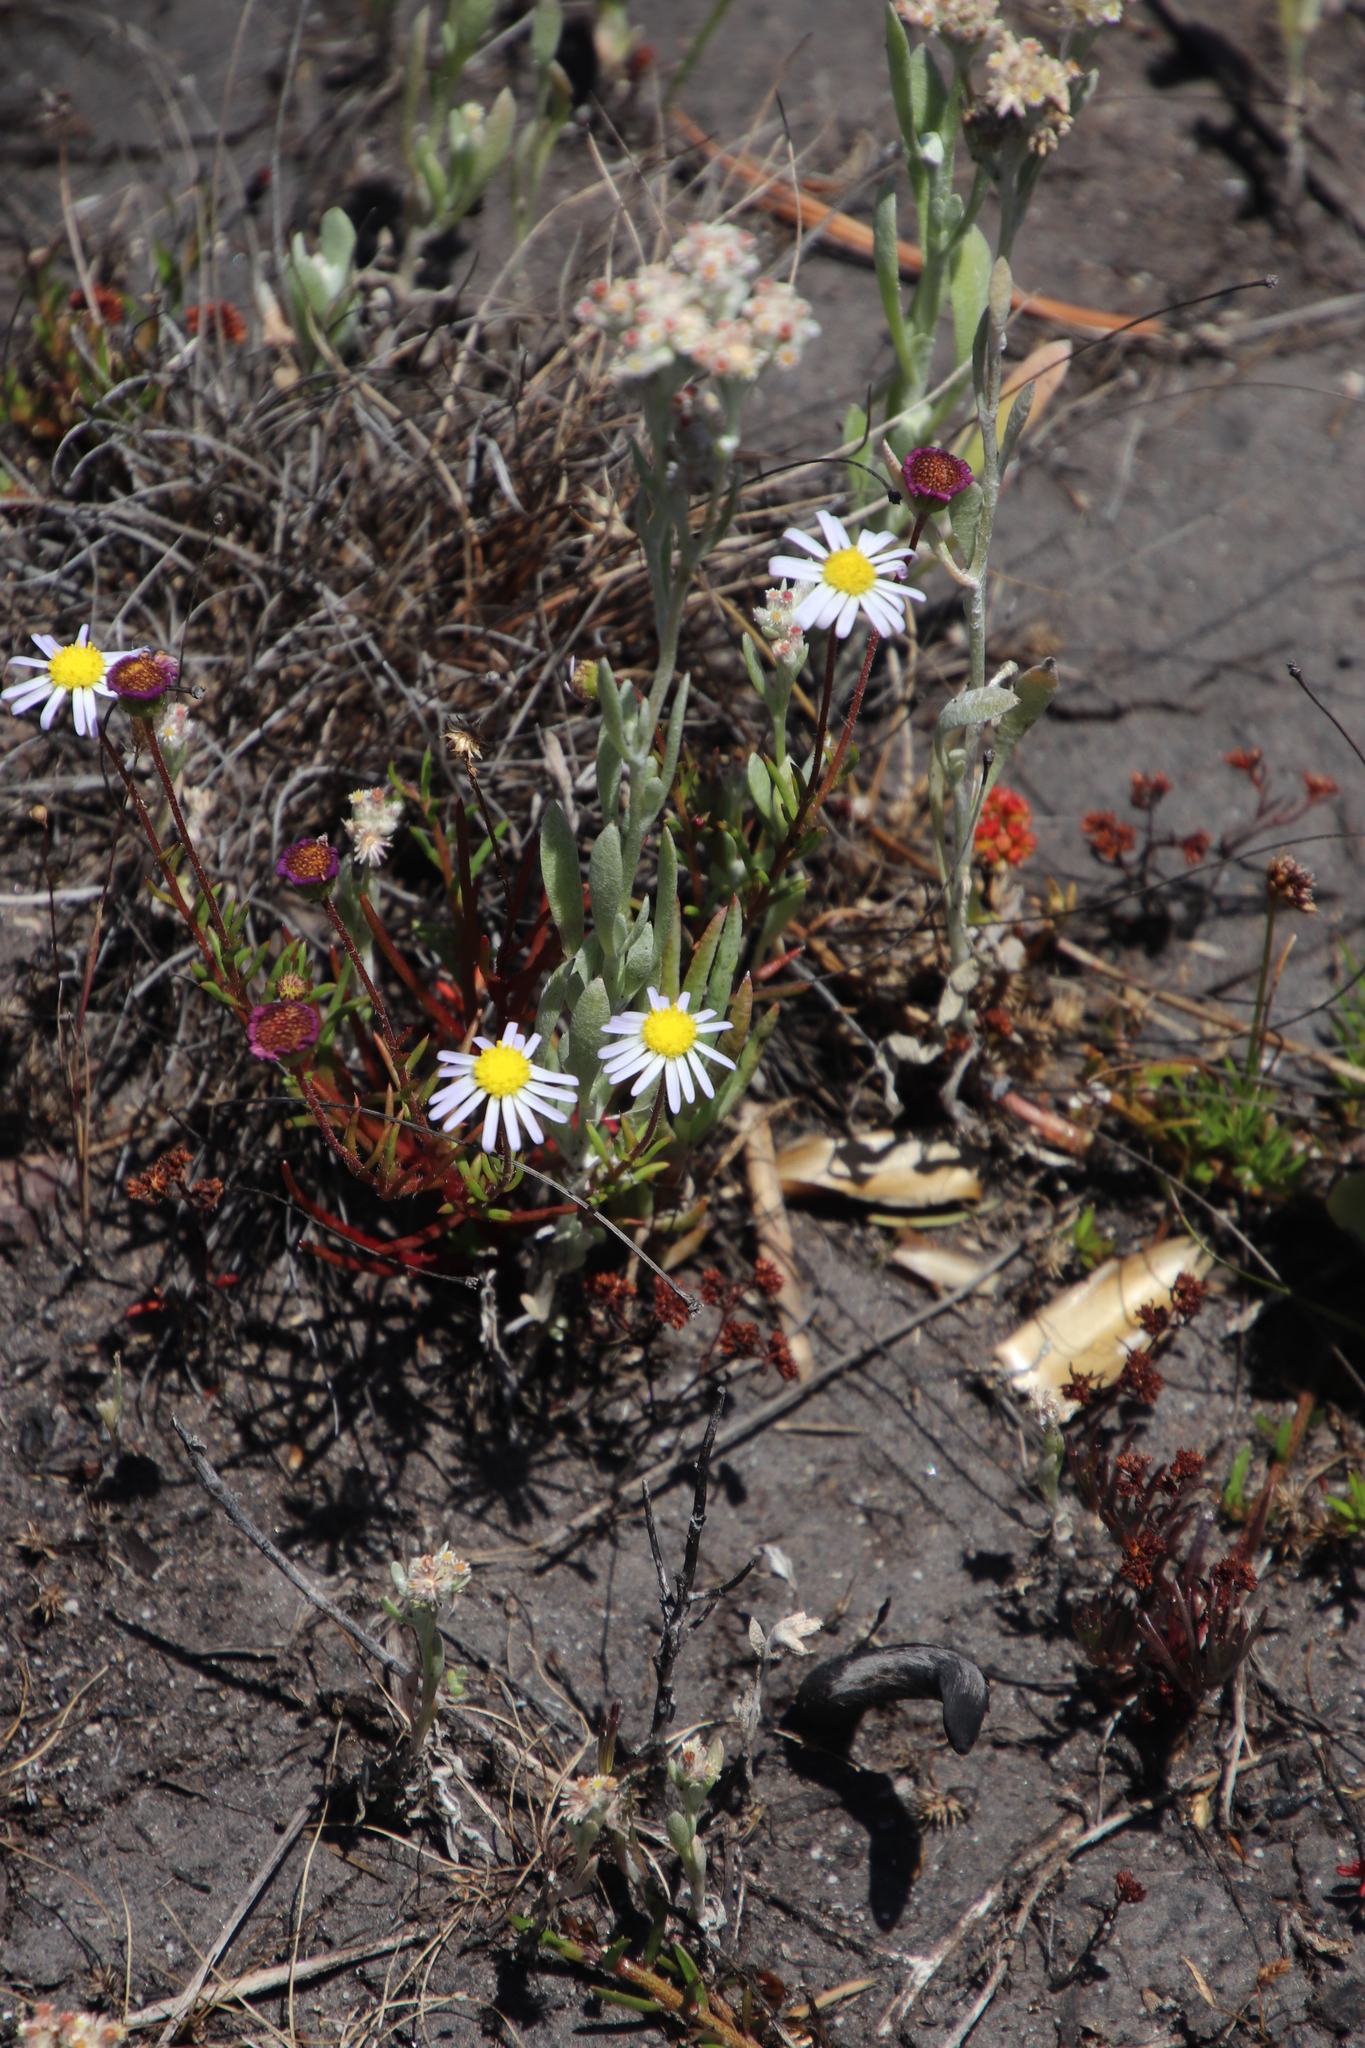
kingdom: Plantae
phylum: Tracheophyta
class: Magnoliopsida
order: Asterales
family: Asteraceae
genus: Felicia
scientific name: Felicia tenella
